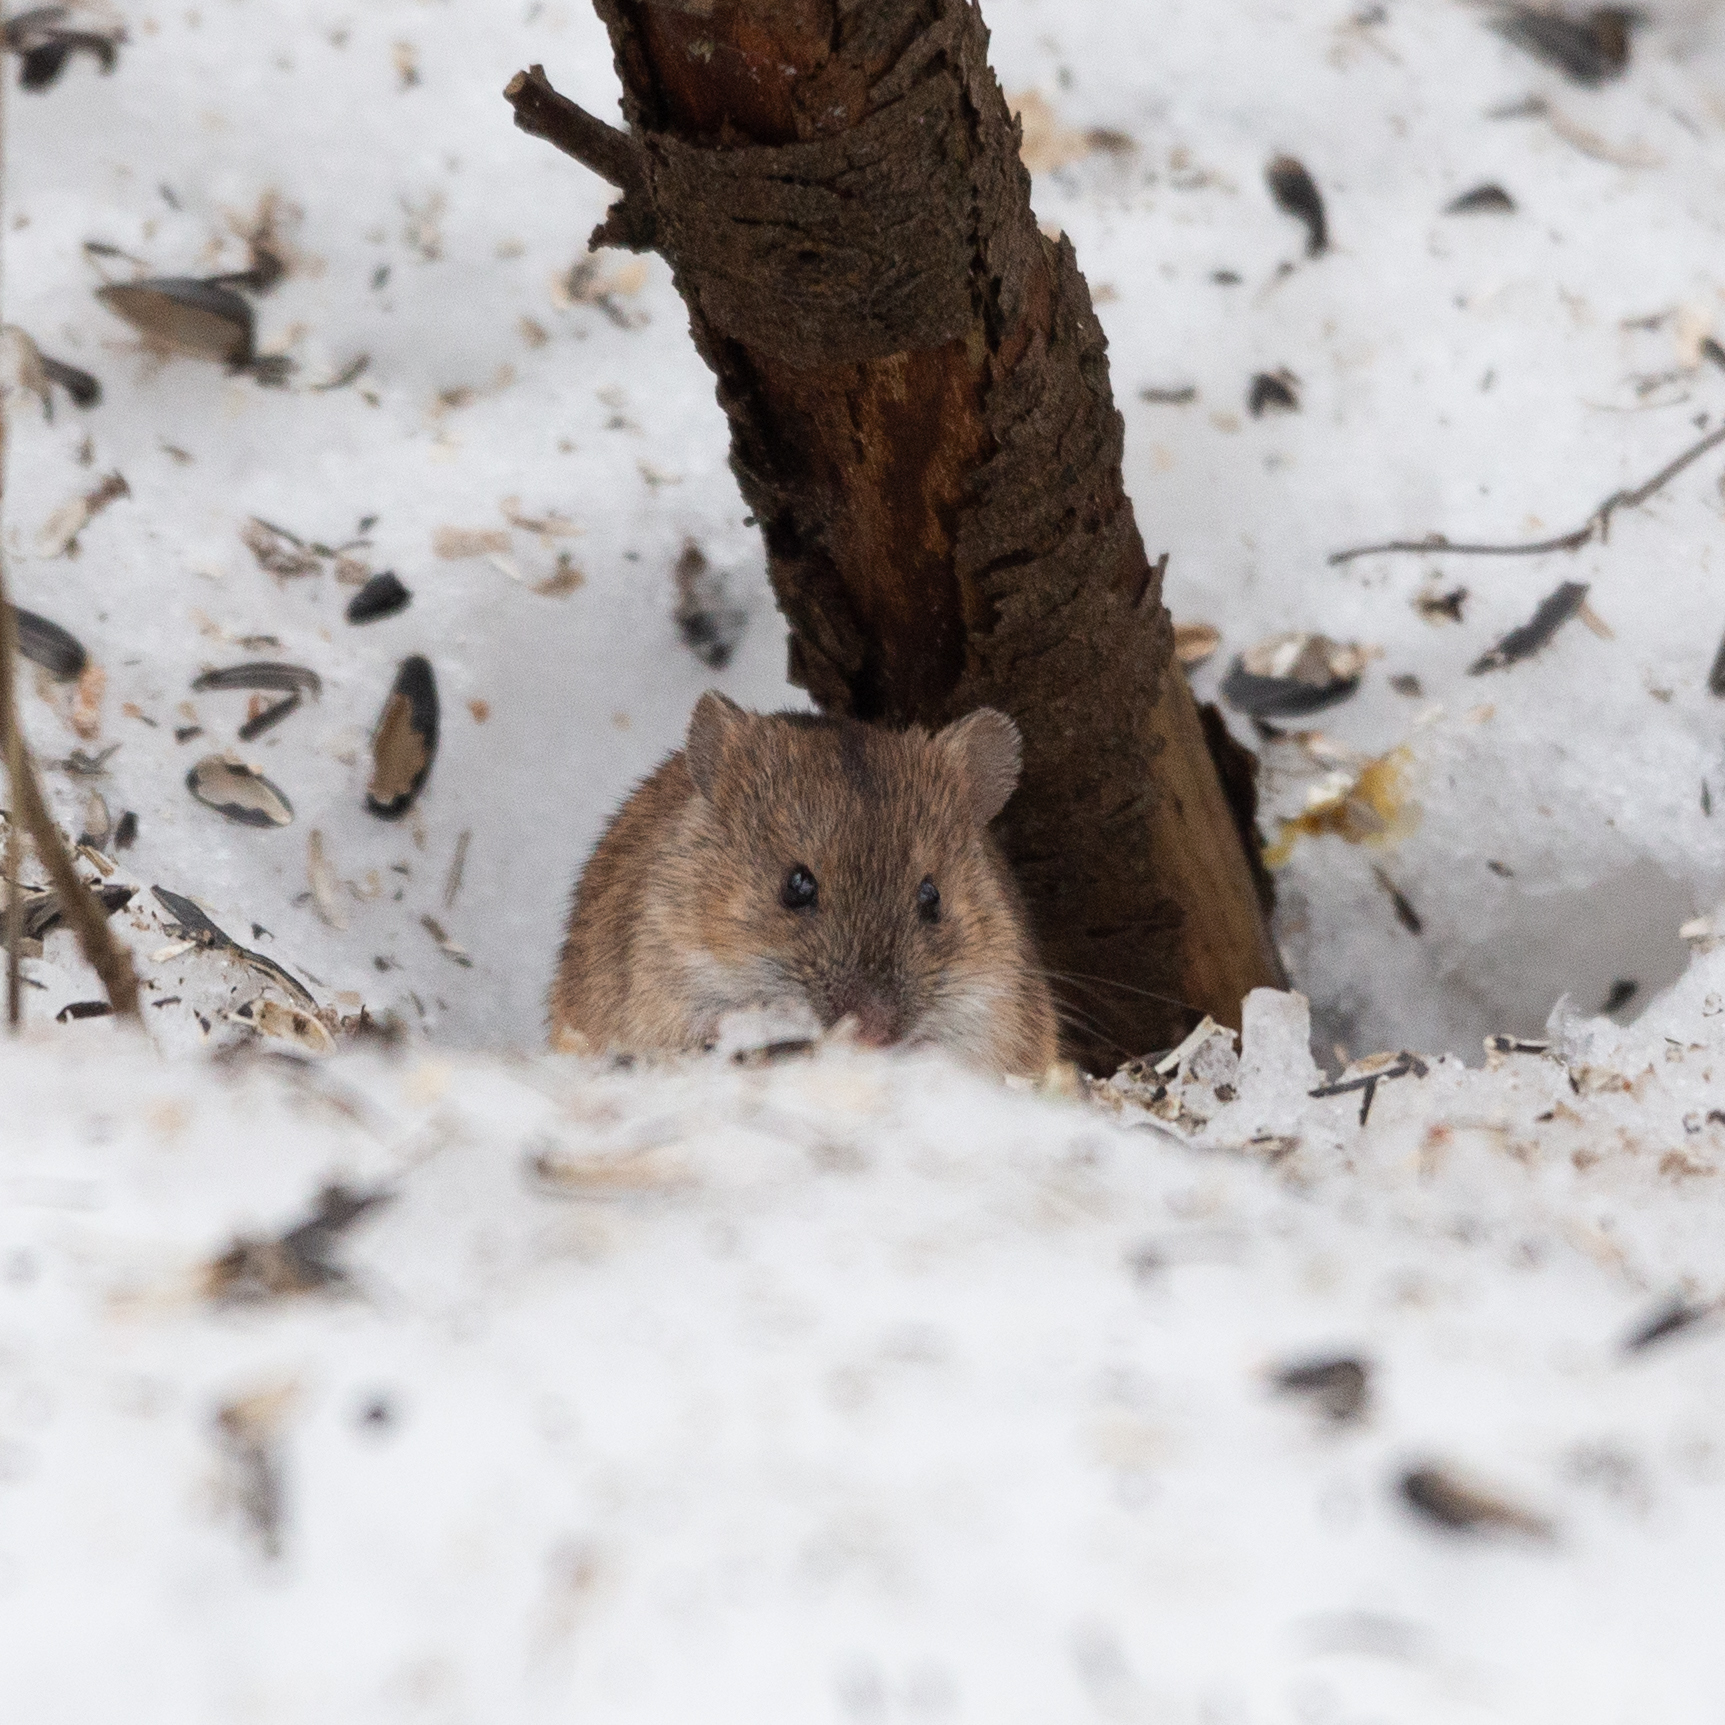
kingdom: Animalia
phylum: Chordata
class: Mammalia
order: Rodentia
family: Muridae
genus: Apodemus
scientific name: Apodemus agrarius
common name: Striped field mouse
